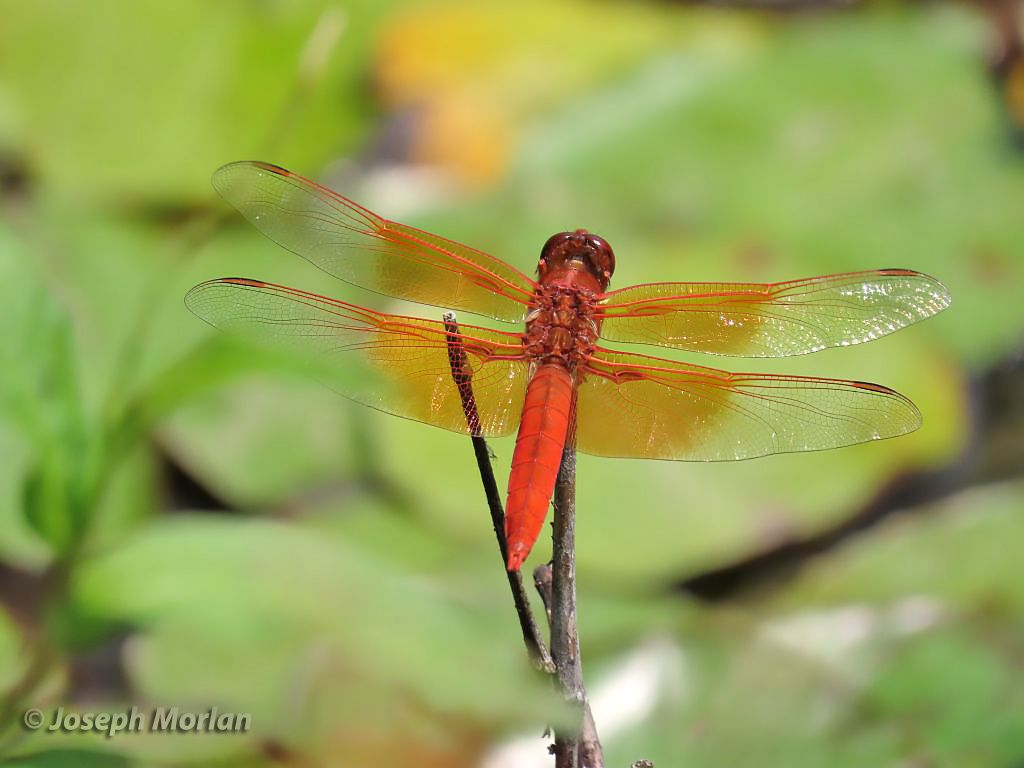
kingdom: Animalia
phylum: Arthropoda
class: Insecta
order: Odonata
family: Libellulidae
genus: Libellula
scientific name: Libellula saturata
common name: Flame skimmer
